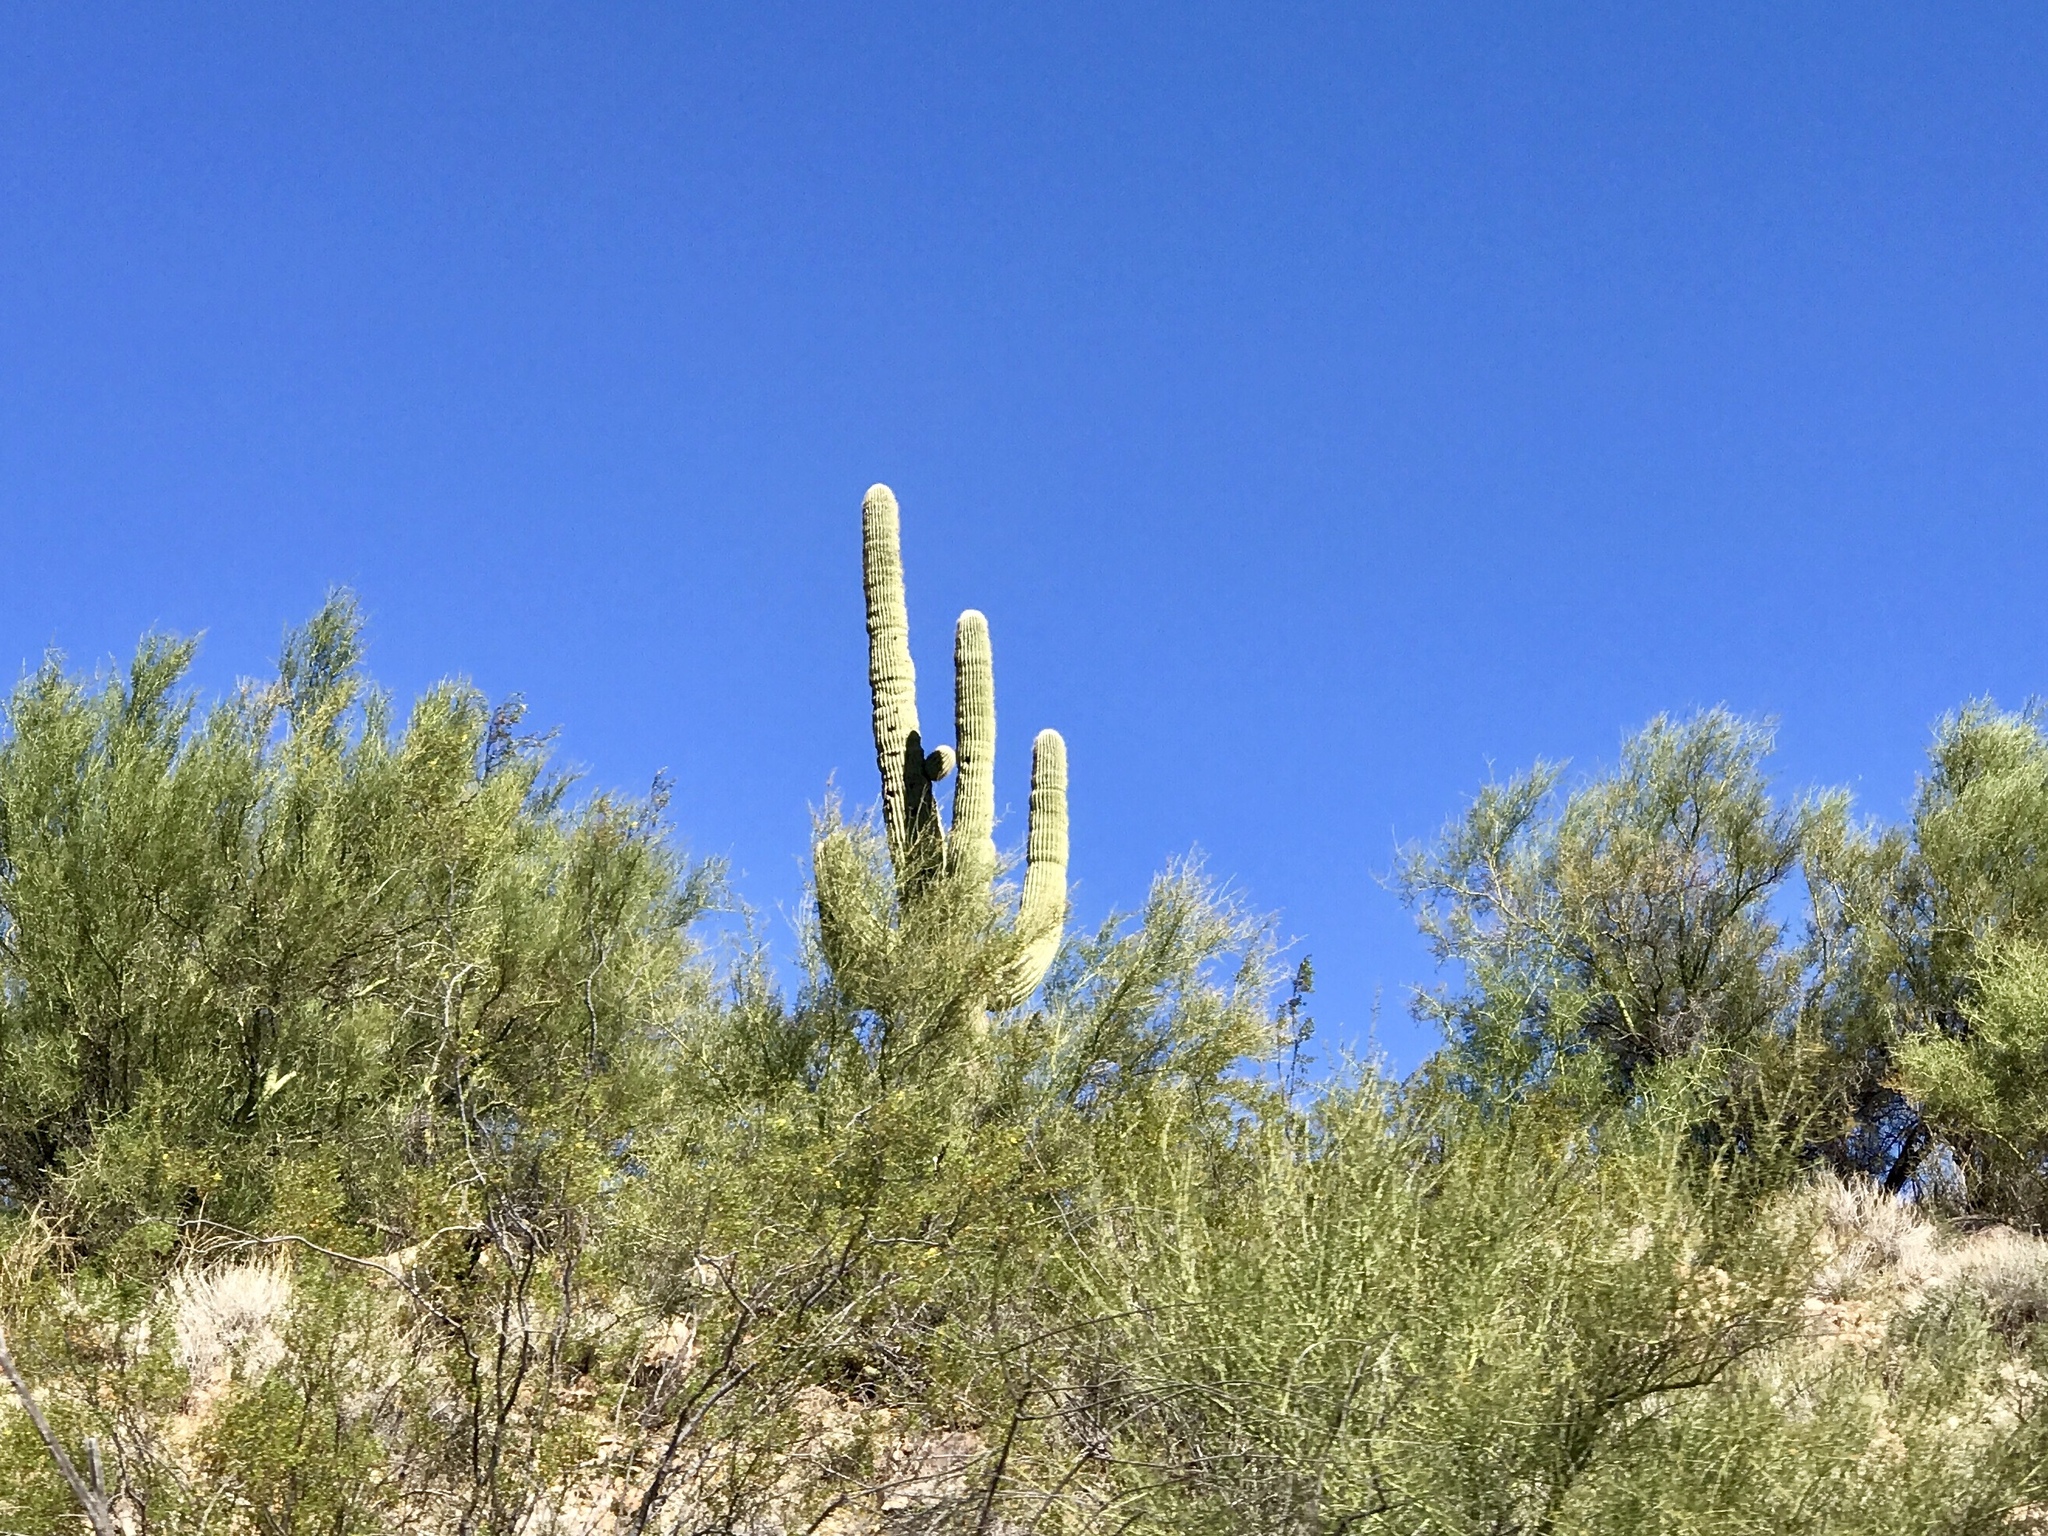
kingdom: Plantae
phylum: Tracheophyta
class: Magnoliopsida
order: Caryophyllales
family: Cactaceae
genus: Carnegiea
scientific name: Carnegiea gigantea
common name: Saguaro
